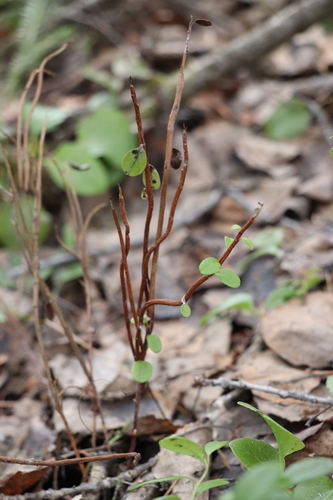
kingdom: Fungi
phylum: Basidiomycota
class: Pucciniomycetes
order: Pucciniales
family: Pucciniastraceae
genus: Calyptospora
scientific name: Calyptospora columnaris
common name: Huckleberry broom rust fungus
